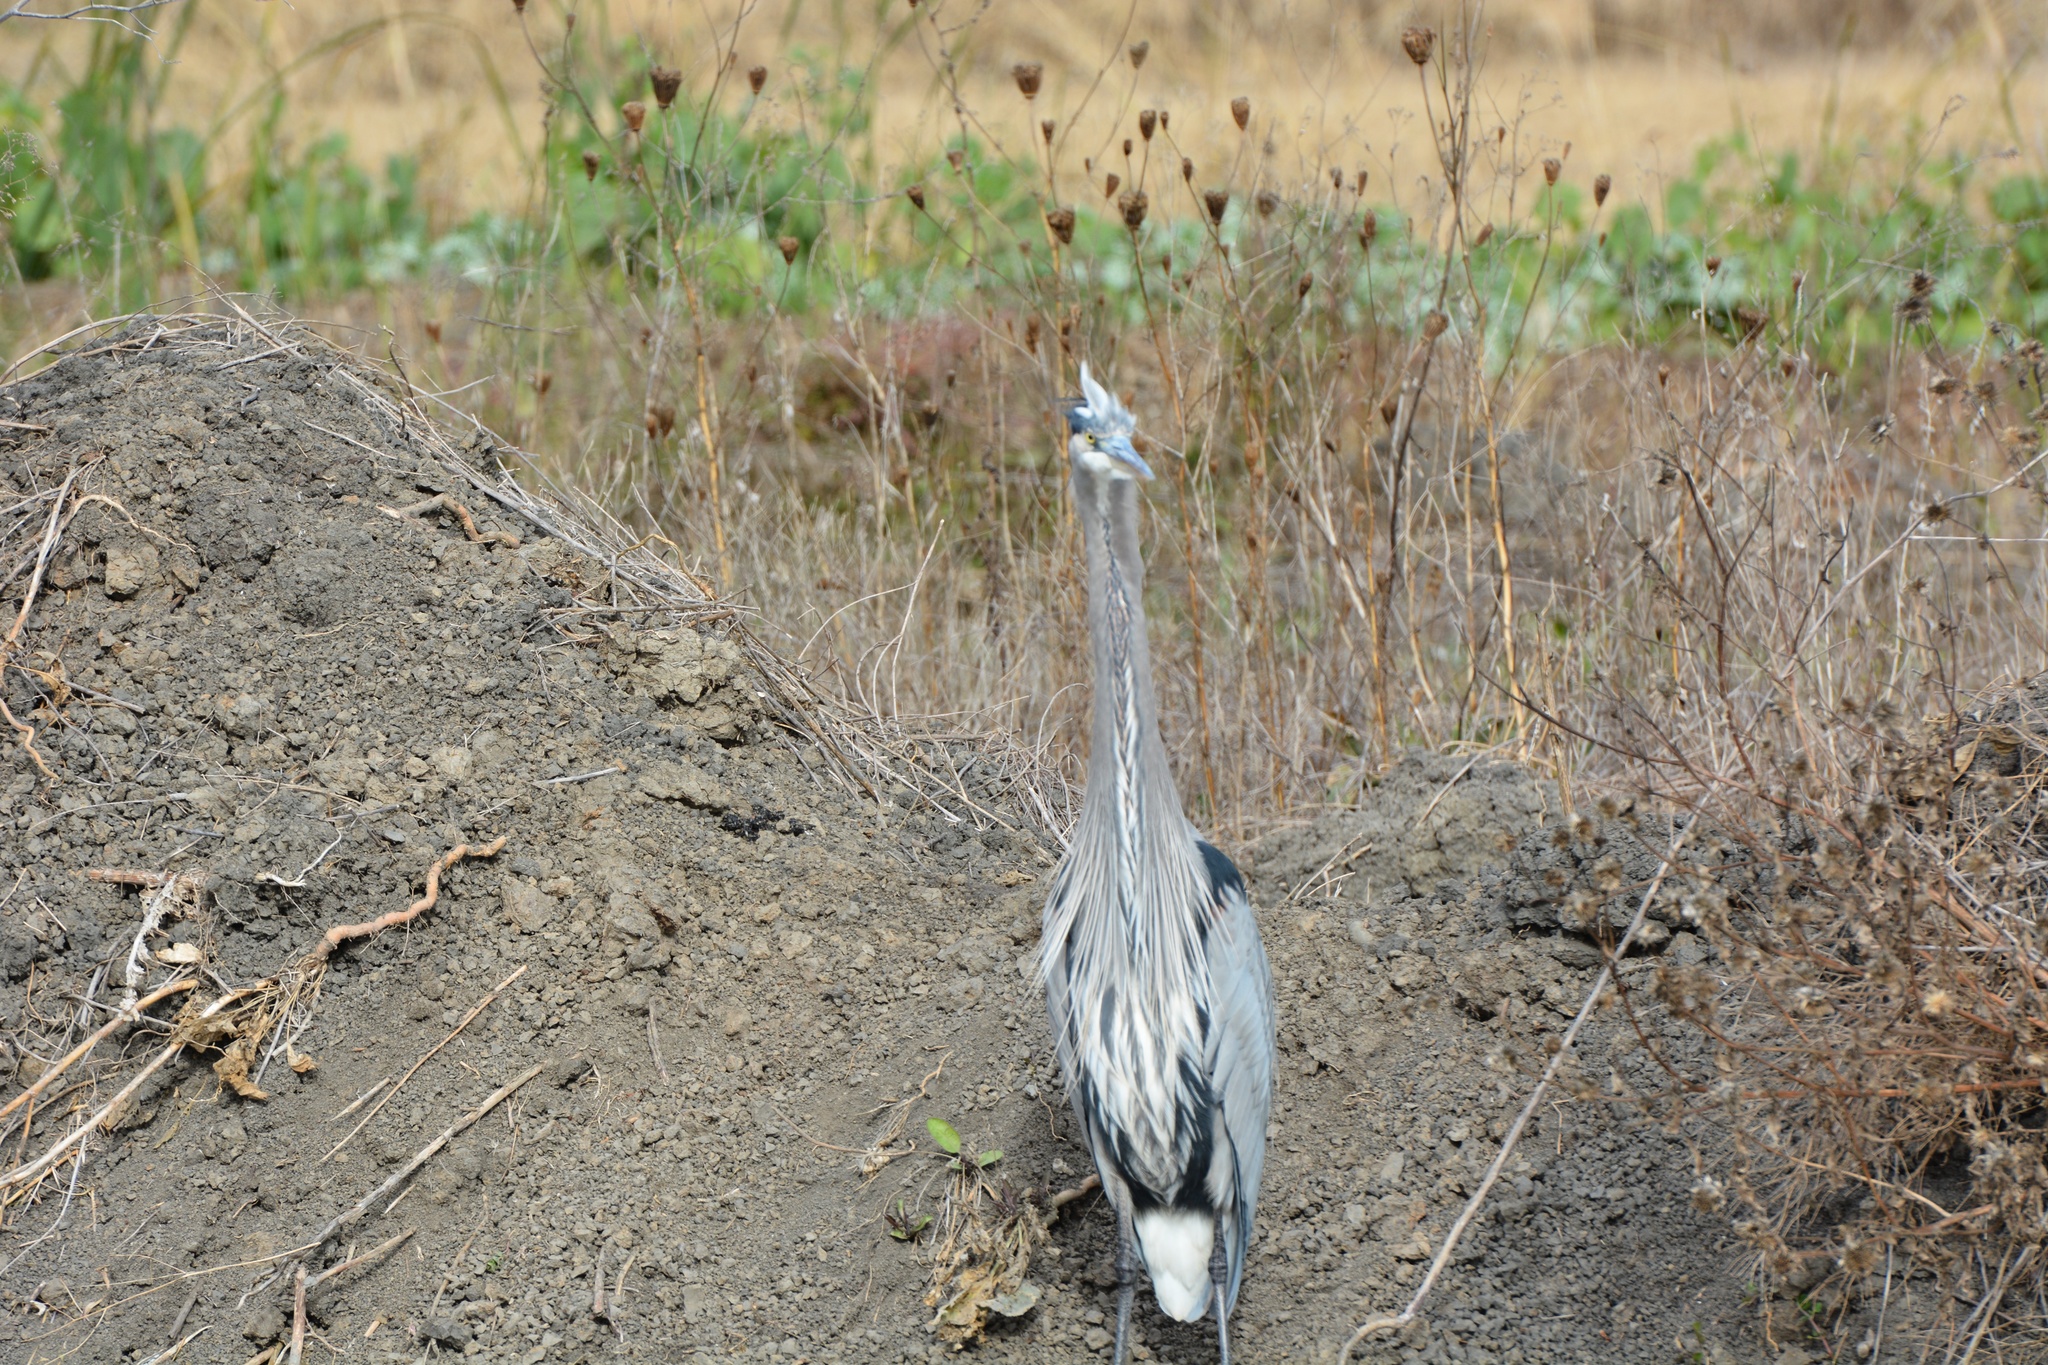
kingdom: Animalia
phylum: Chordata
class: Aves
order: Pelecaniformes
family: Ardeidae
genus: Ardea
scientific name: Ardea herodias
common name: Great blue heron
